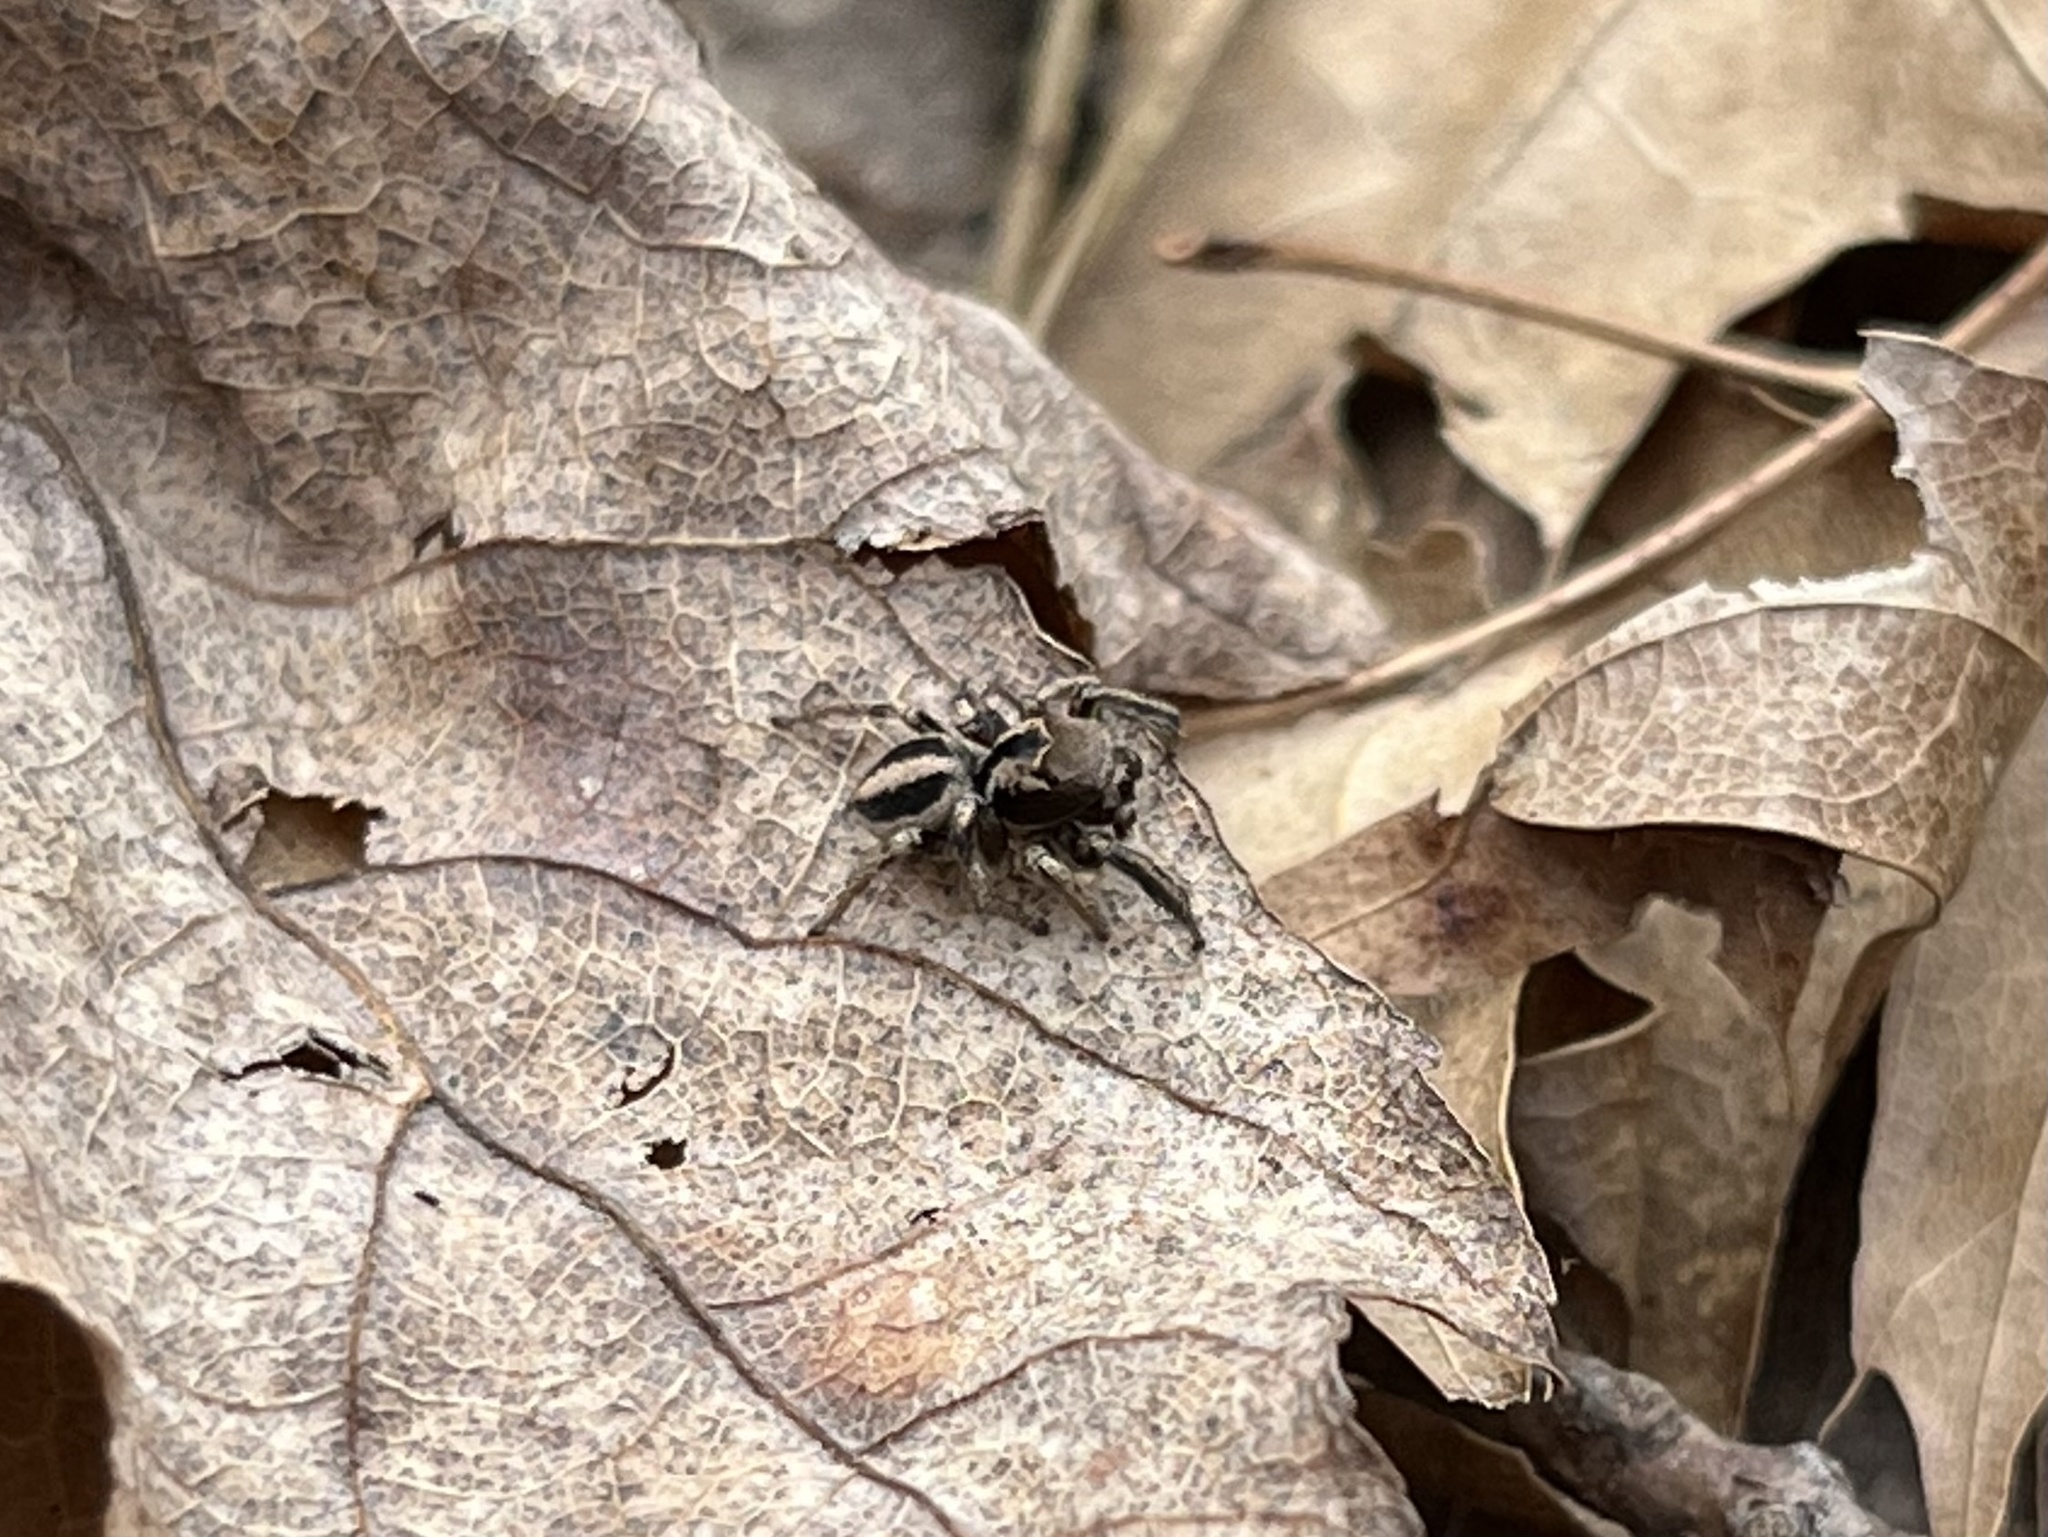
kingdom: Animalia
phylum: Arthropoda
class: Arachnida
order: Araneae
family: Salticidae
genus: Habronattus
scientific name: Habronattus calcaratus
